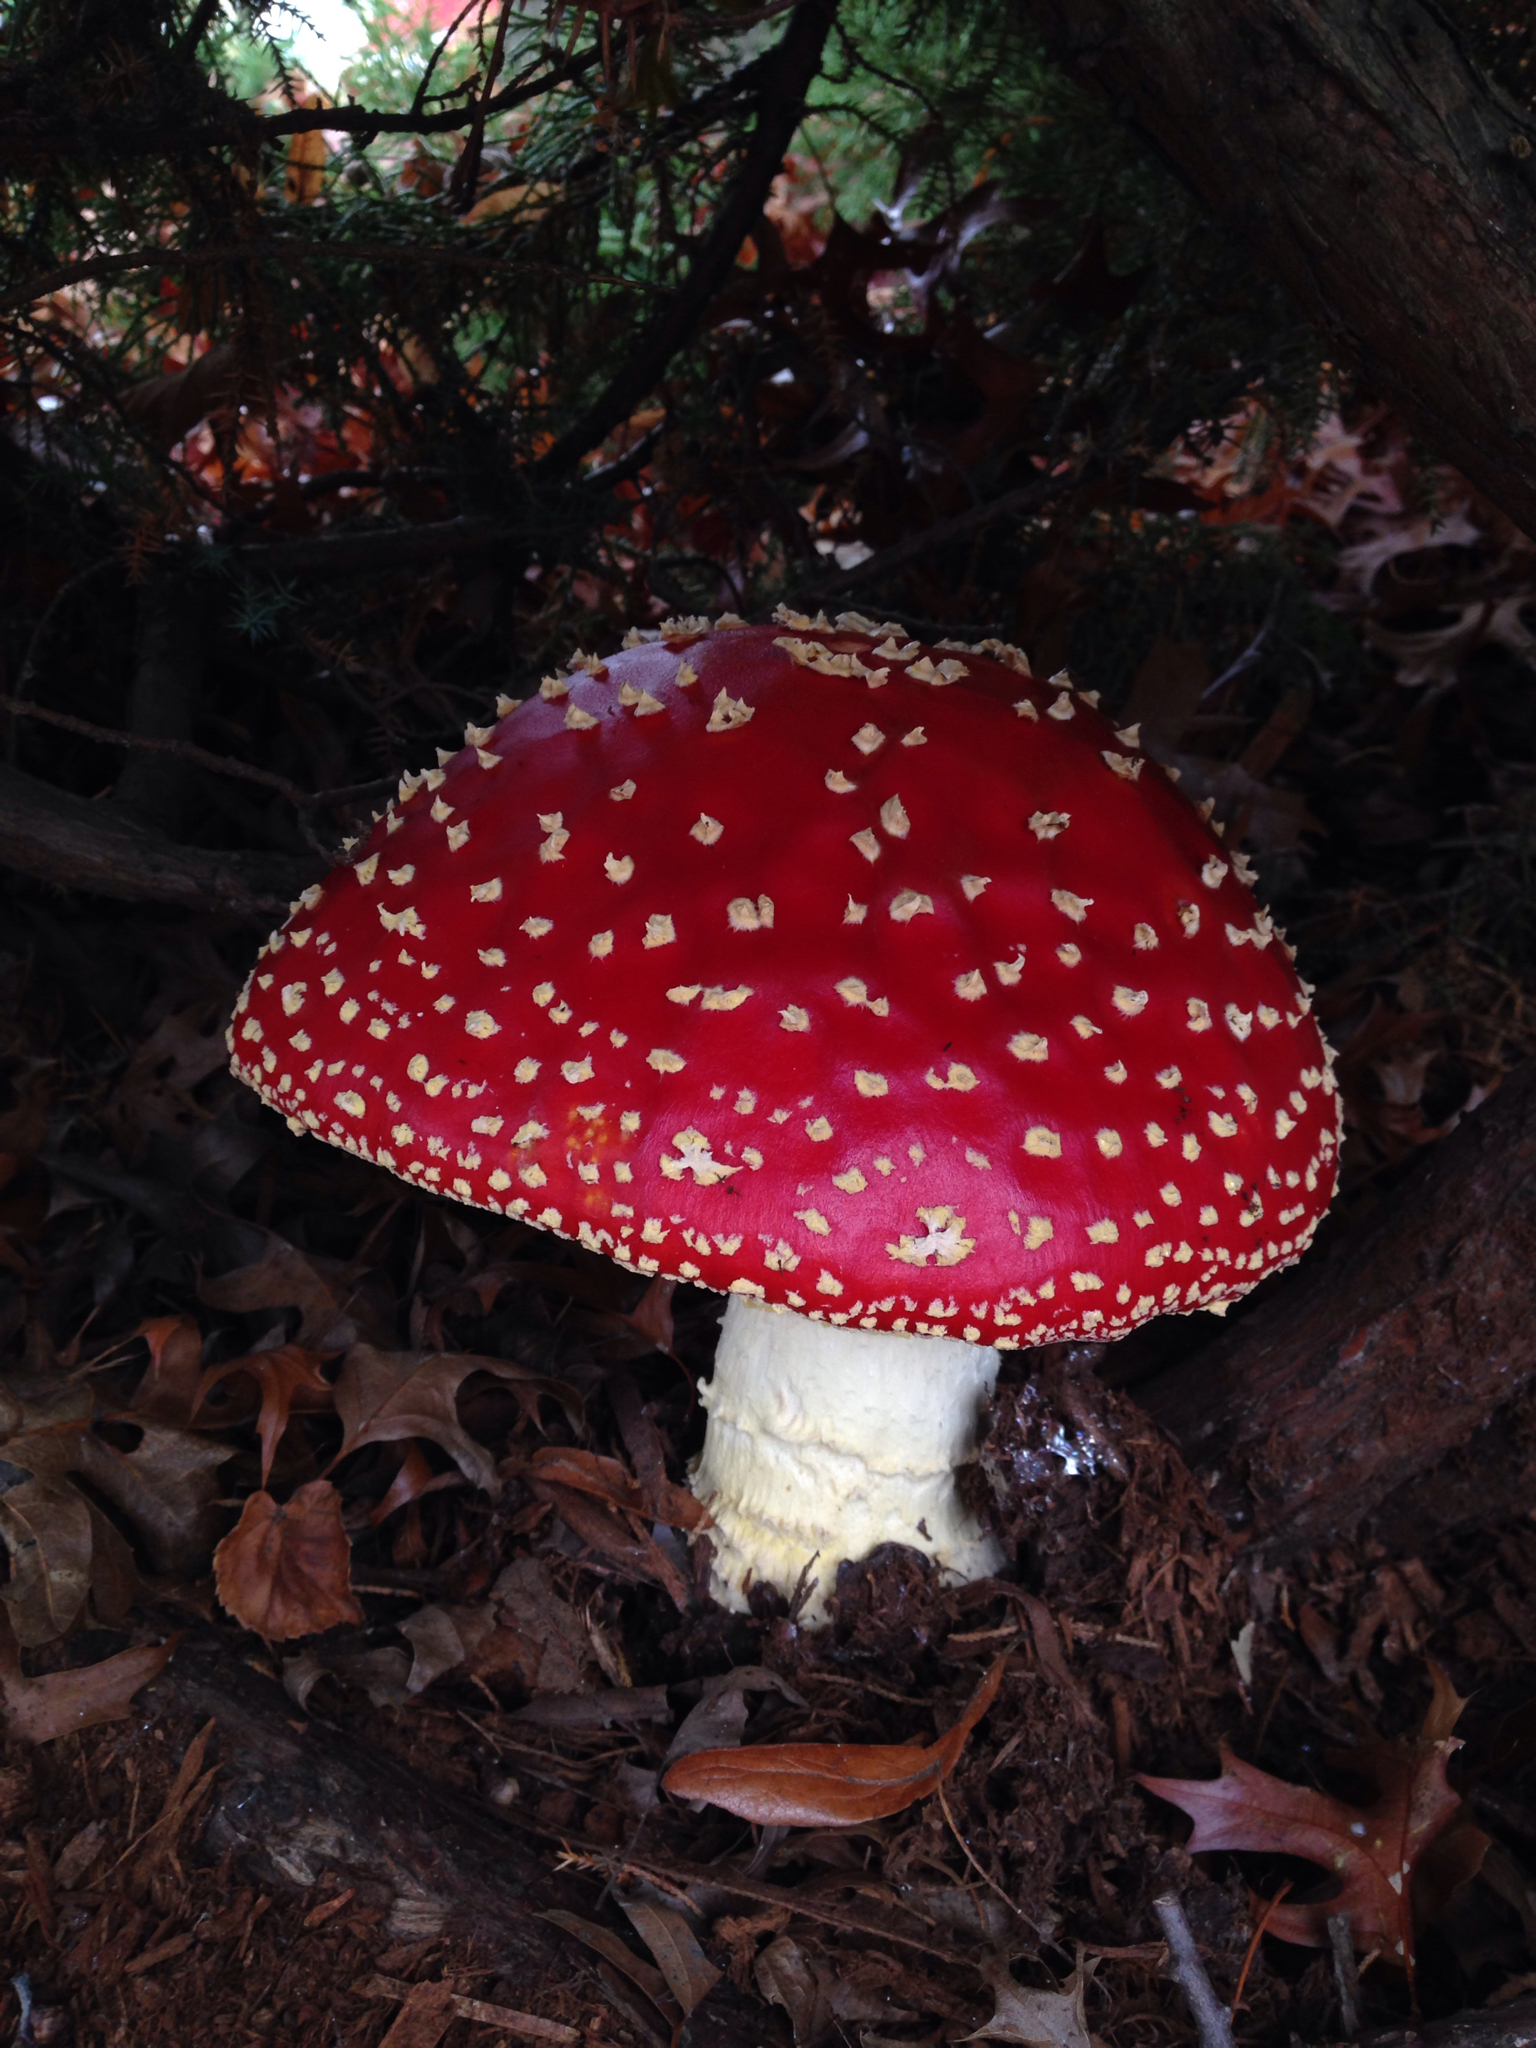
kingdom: Fungi
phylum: Basidiomycota
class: Agaricomycetes
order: Agaricales
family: Amanitaceae
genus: Amanita
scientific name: Amanita muscaria
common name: Fly agaric
